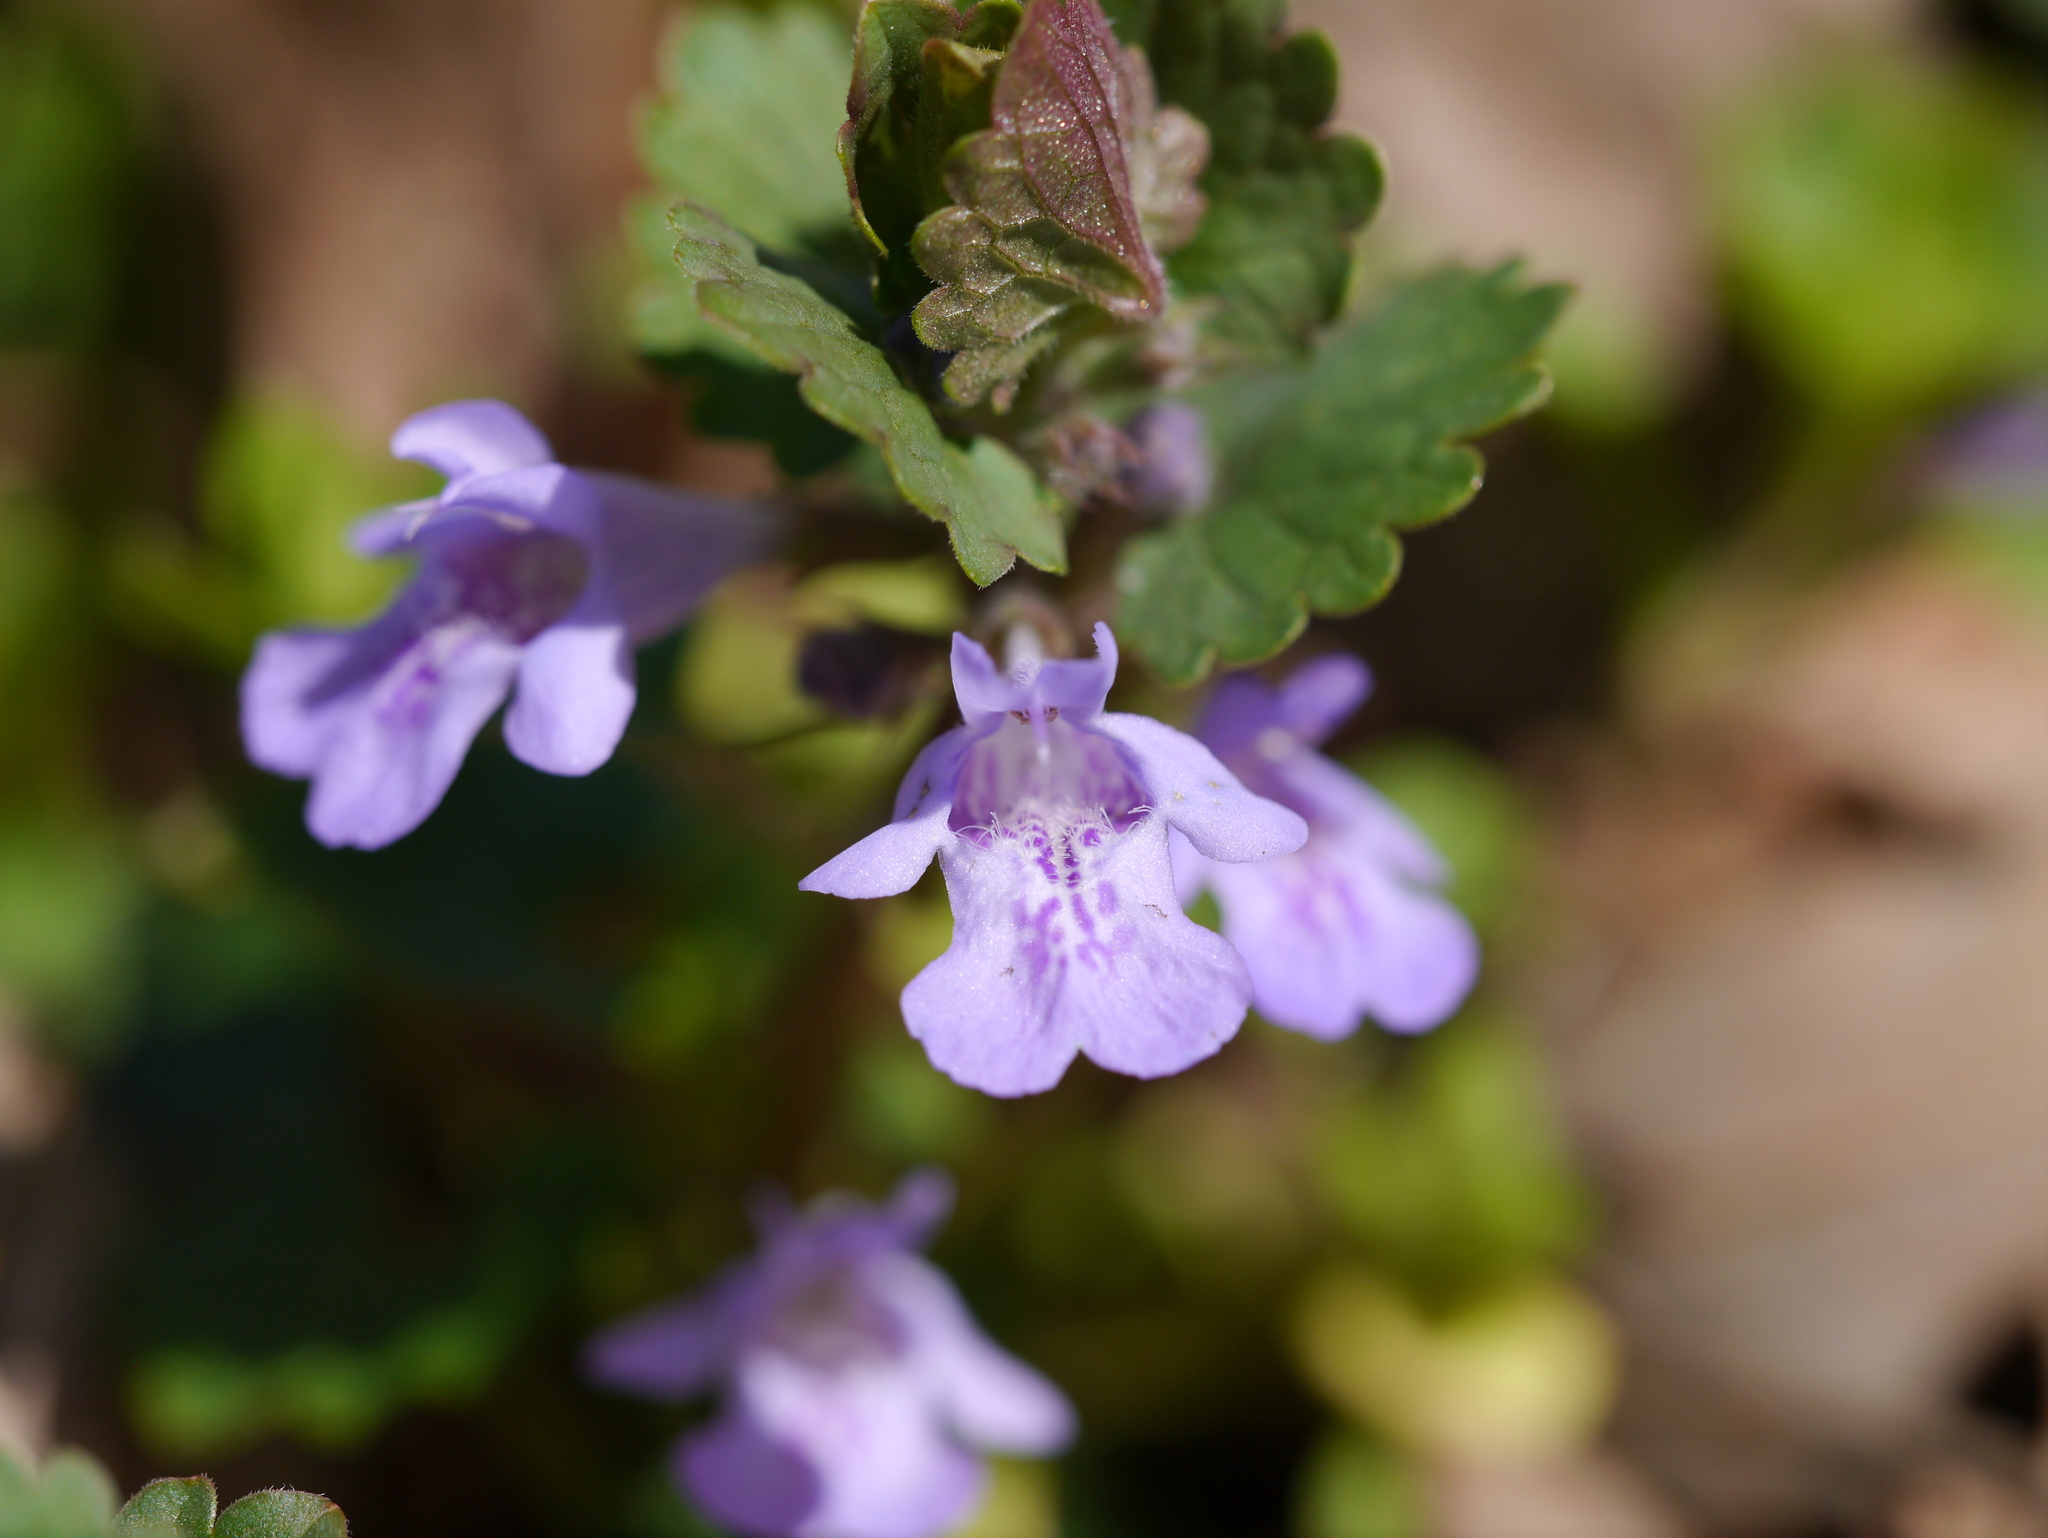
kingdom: Plantae
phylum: Tracheophyta
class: Magnoliopsida
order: Lamiales
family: Lamiaceae
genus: Glechoma
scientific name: Glechoma hederacea
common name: Ground ivy
